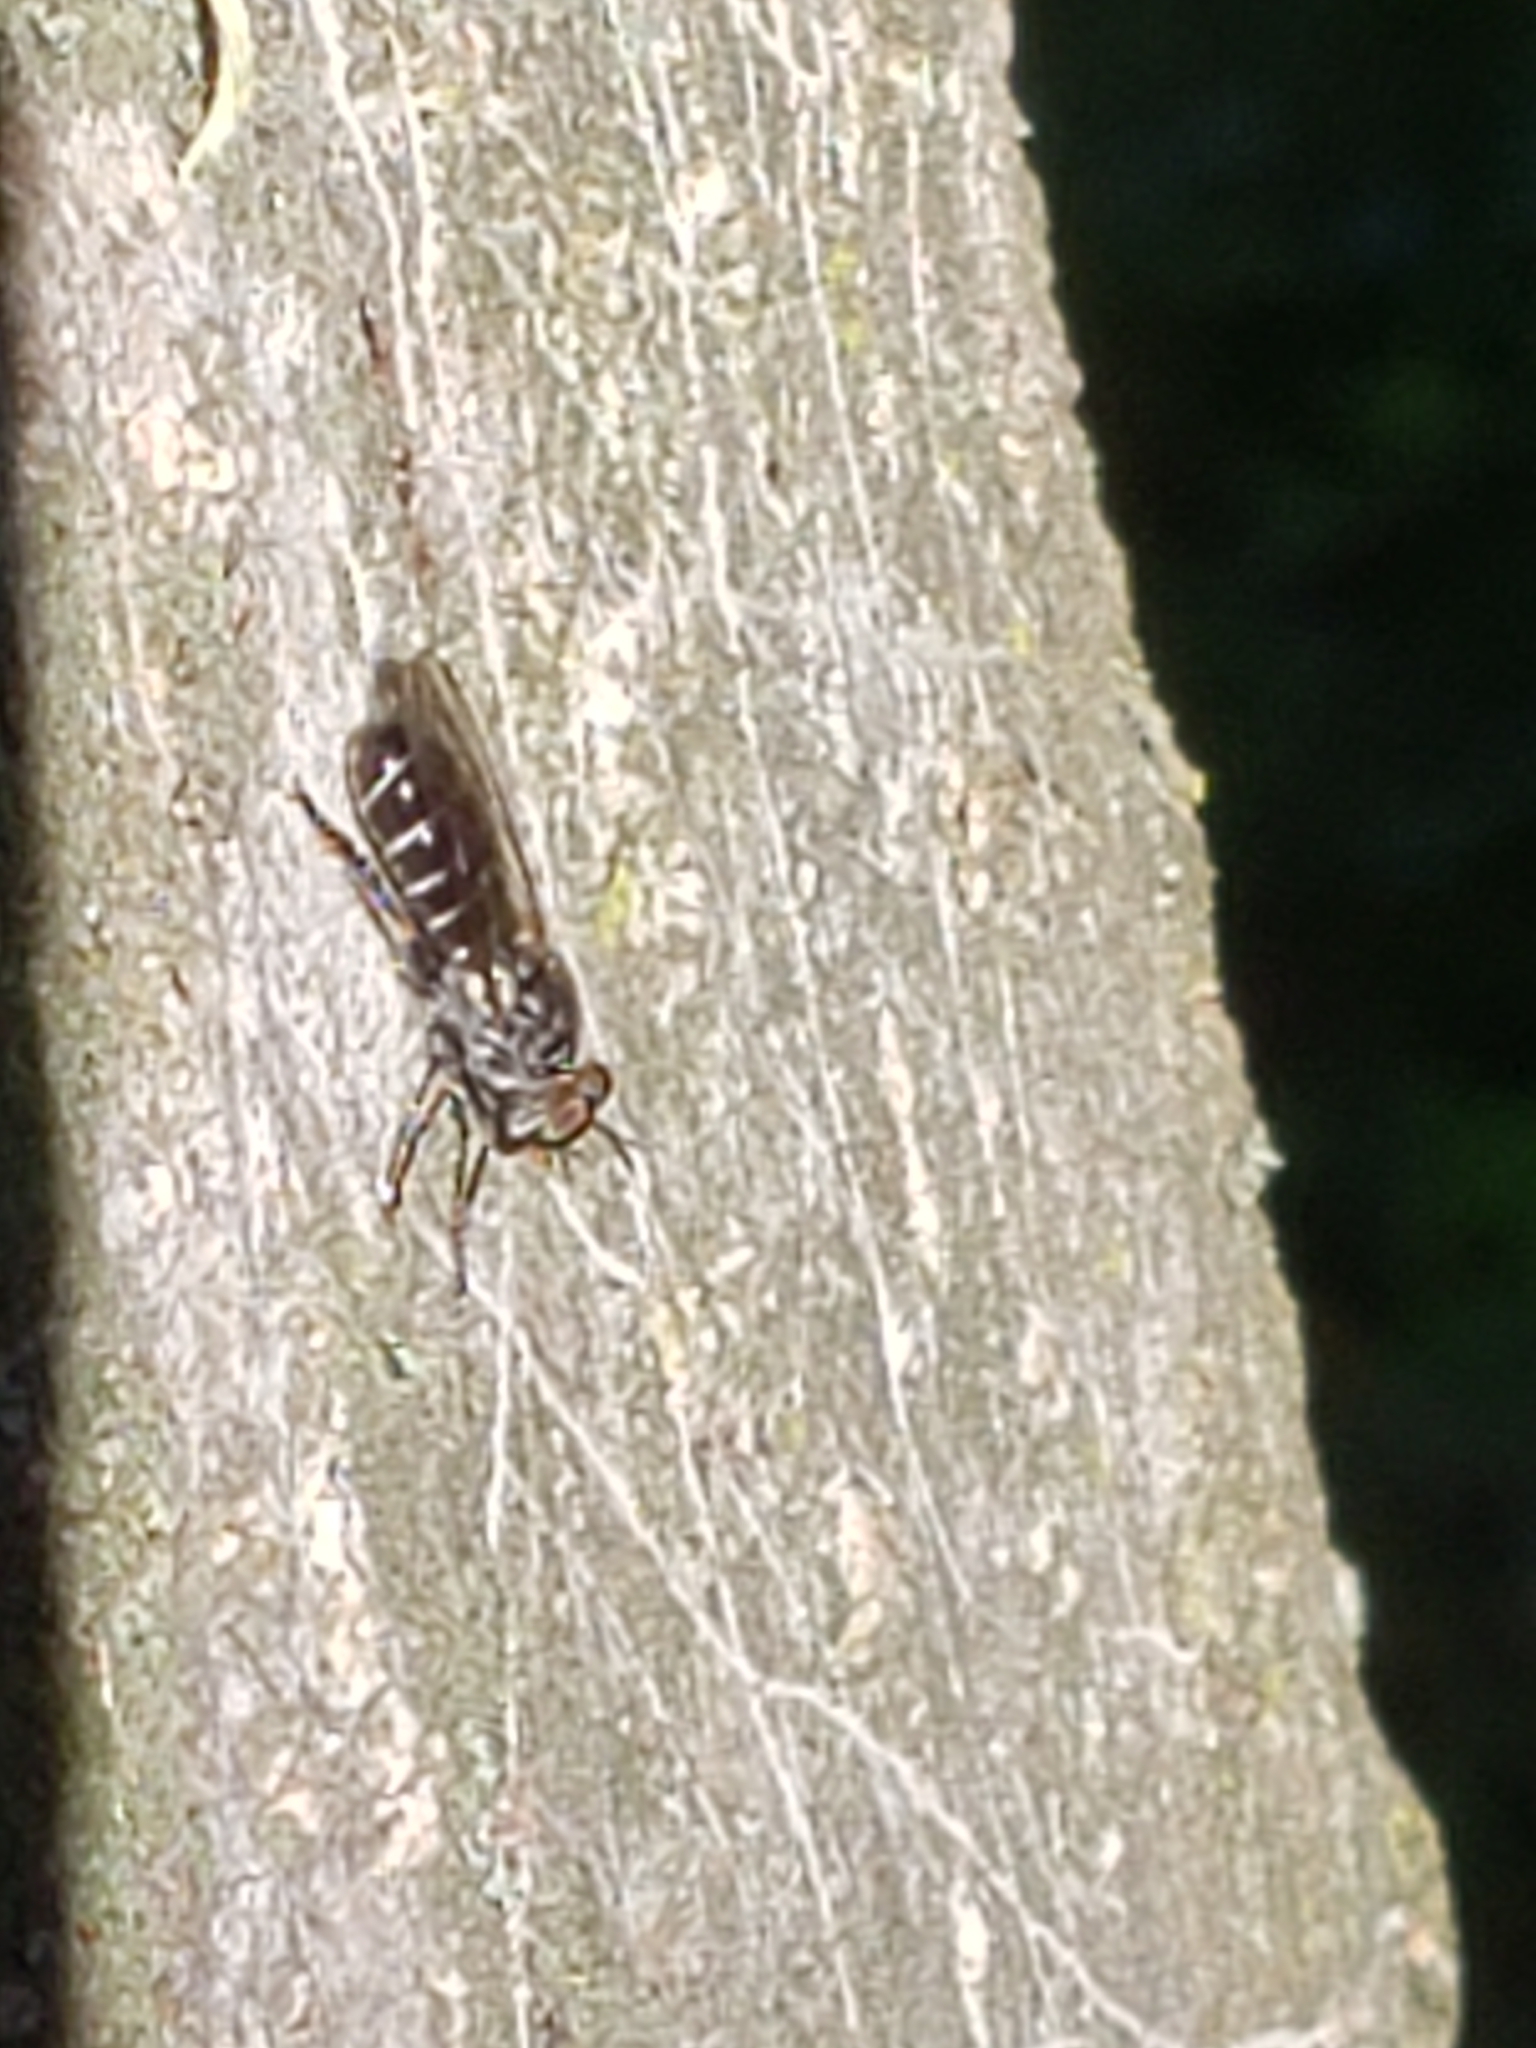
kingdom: Animalia
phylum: Arthropoda
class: Insecta
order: Diptera
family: Asilidae
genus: Atomosia
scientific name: Atomosia puella
